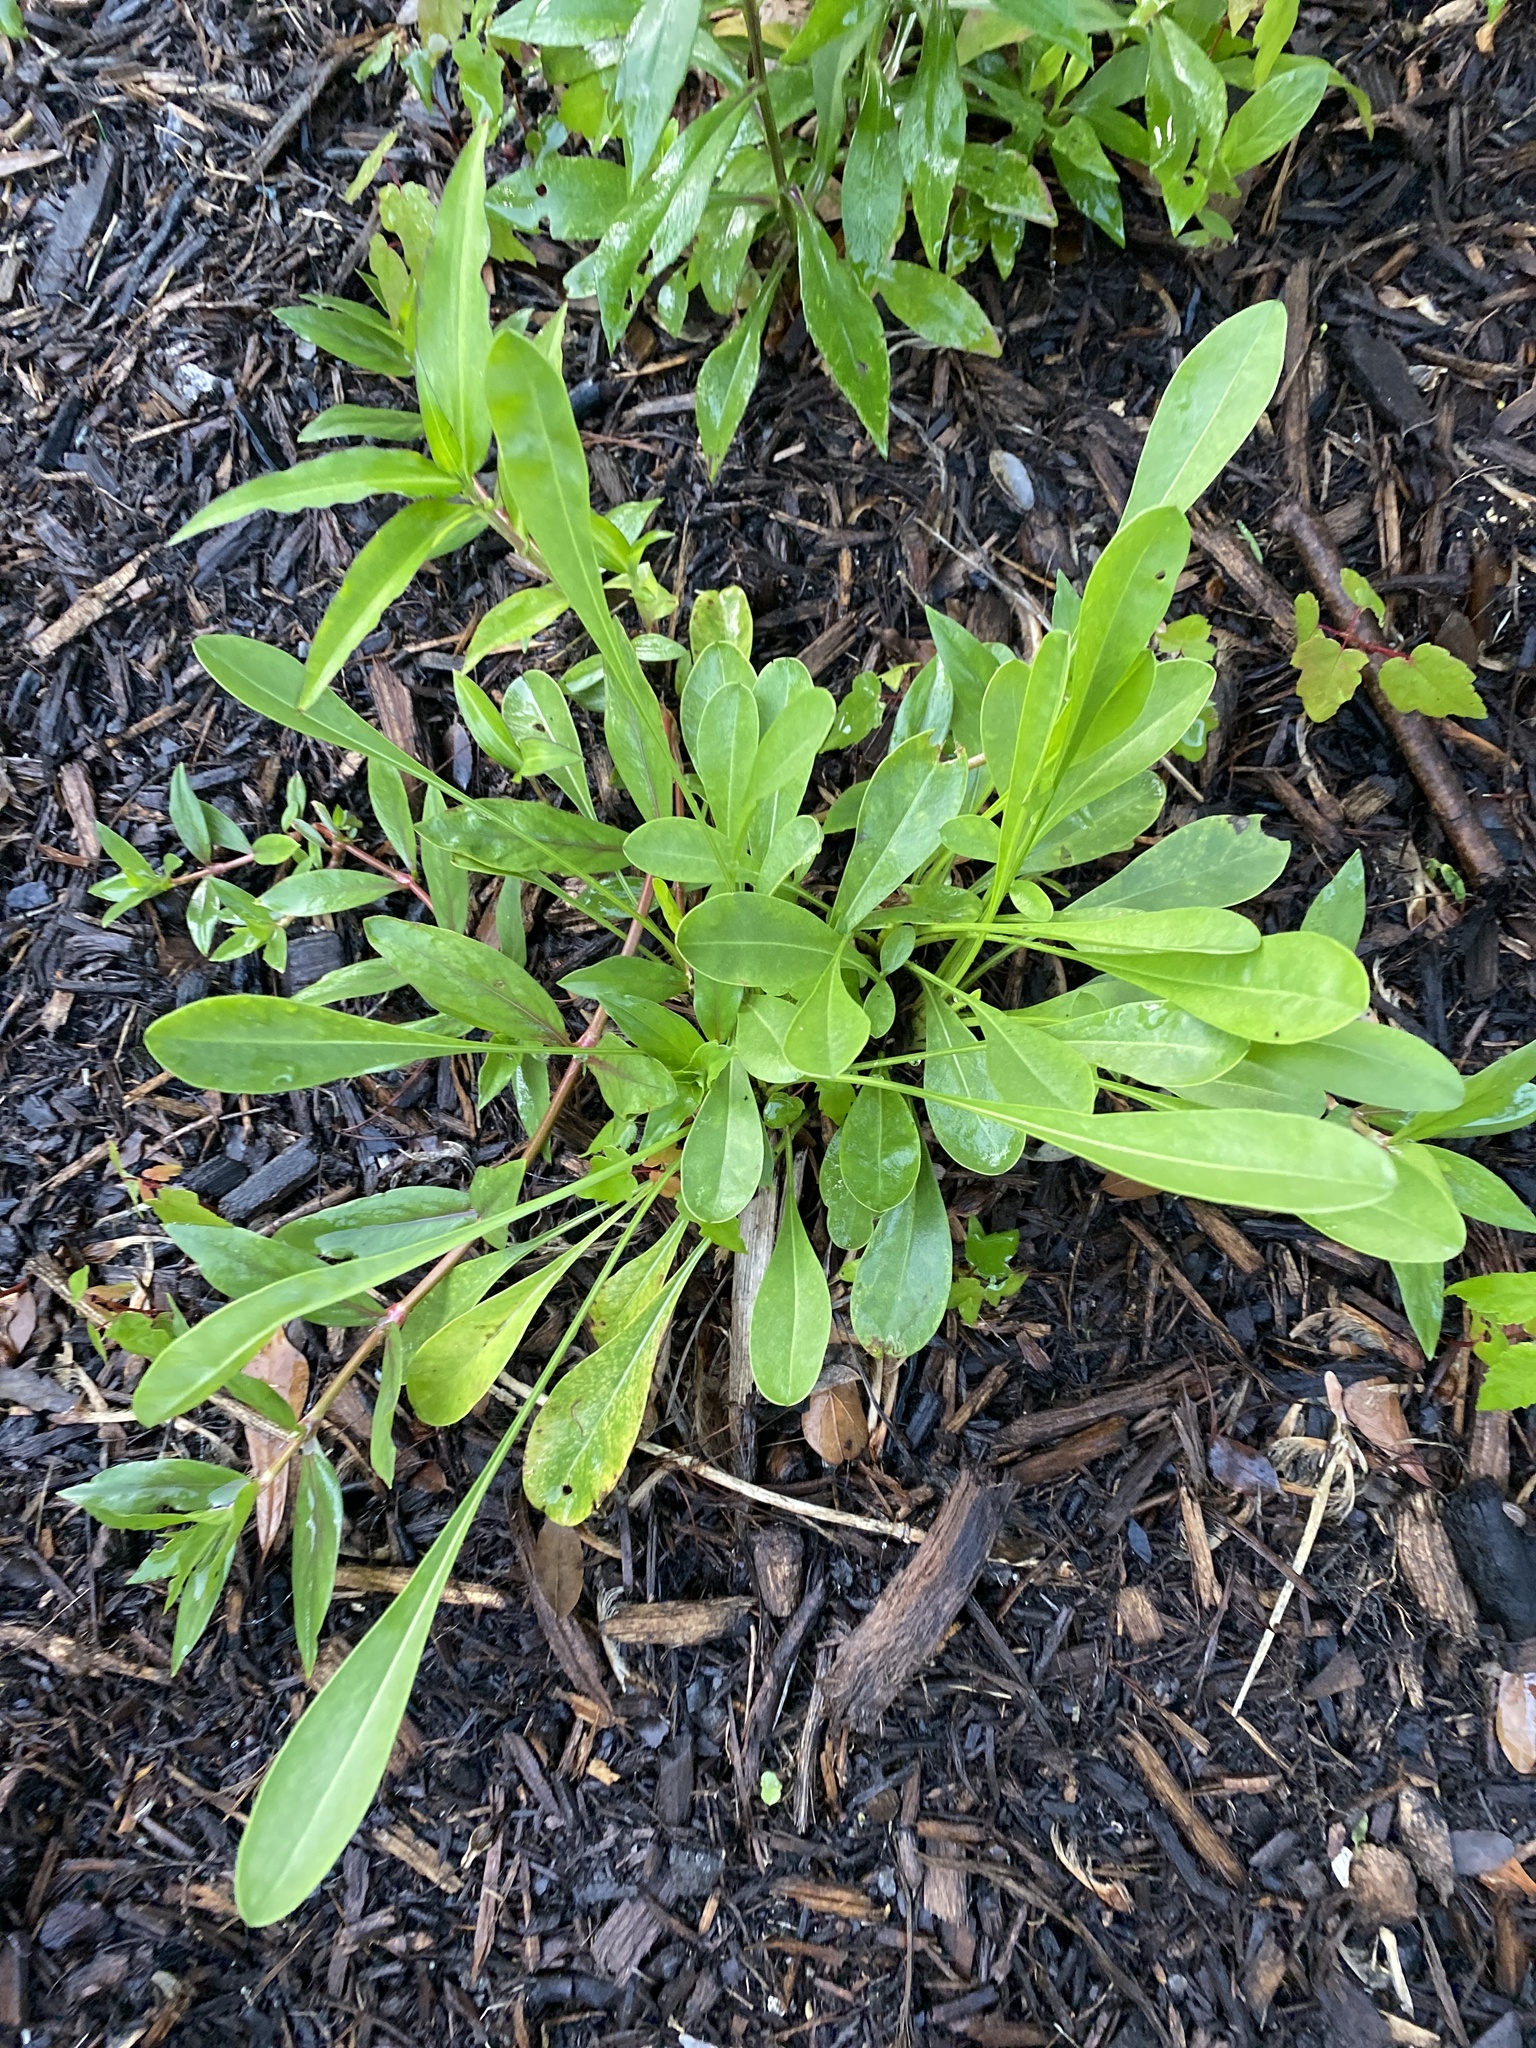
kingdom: Plantae
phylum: Tracheophyta
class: Magnoliopsida
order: Asterales
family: Asteraceae
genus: Coreopsis
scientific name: Coreopsis lanceolata
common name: Garden coreopsis
